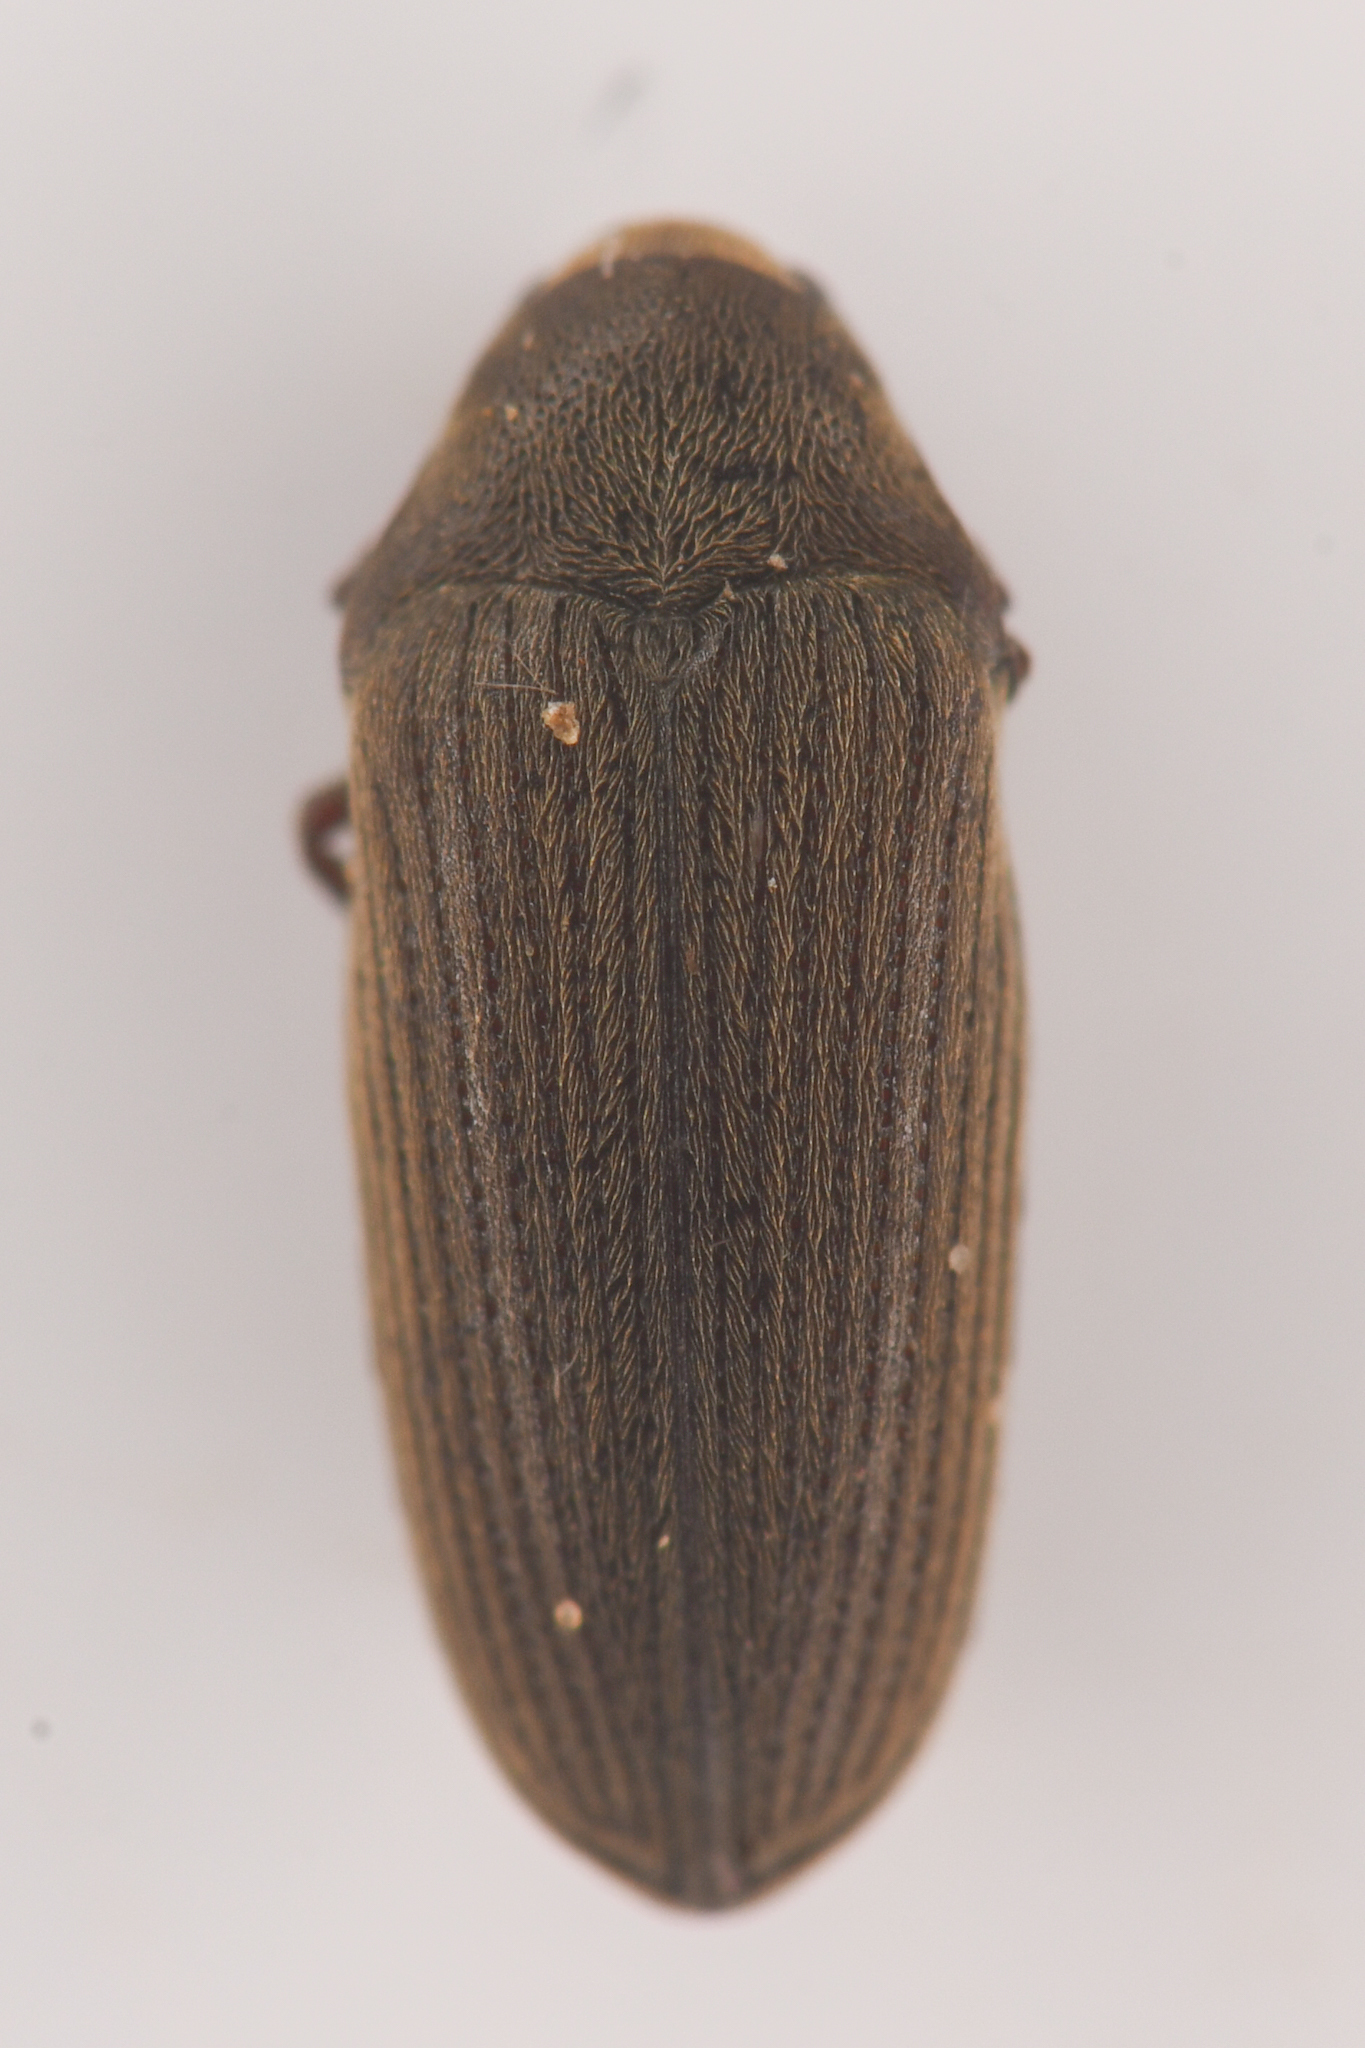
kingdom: Animalia
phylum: Arthropoda
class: Insecta
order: Coleoptera
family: Throscidae
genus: Pactopus
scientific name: Pactopus hornii
